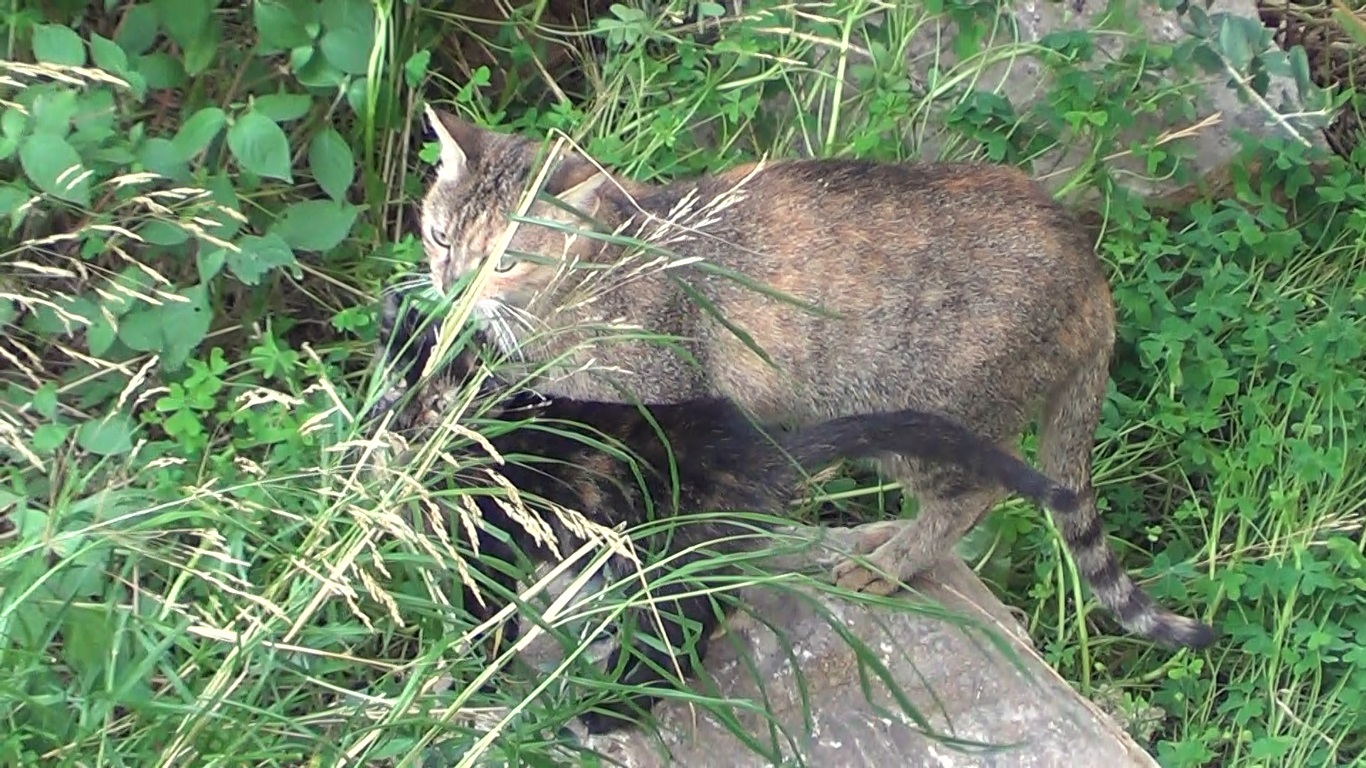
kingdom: Animalia
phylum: Chordata
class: Mammalia
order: Carnivora
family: Felidae
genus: Felis
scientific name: Felis catus
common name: Domestic cat
